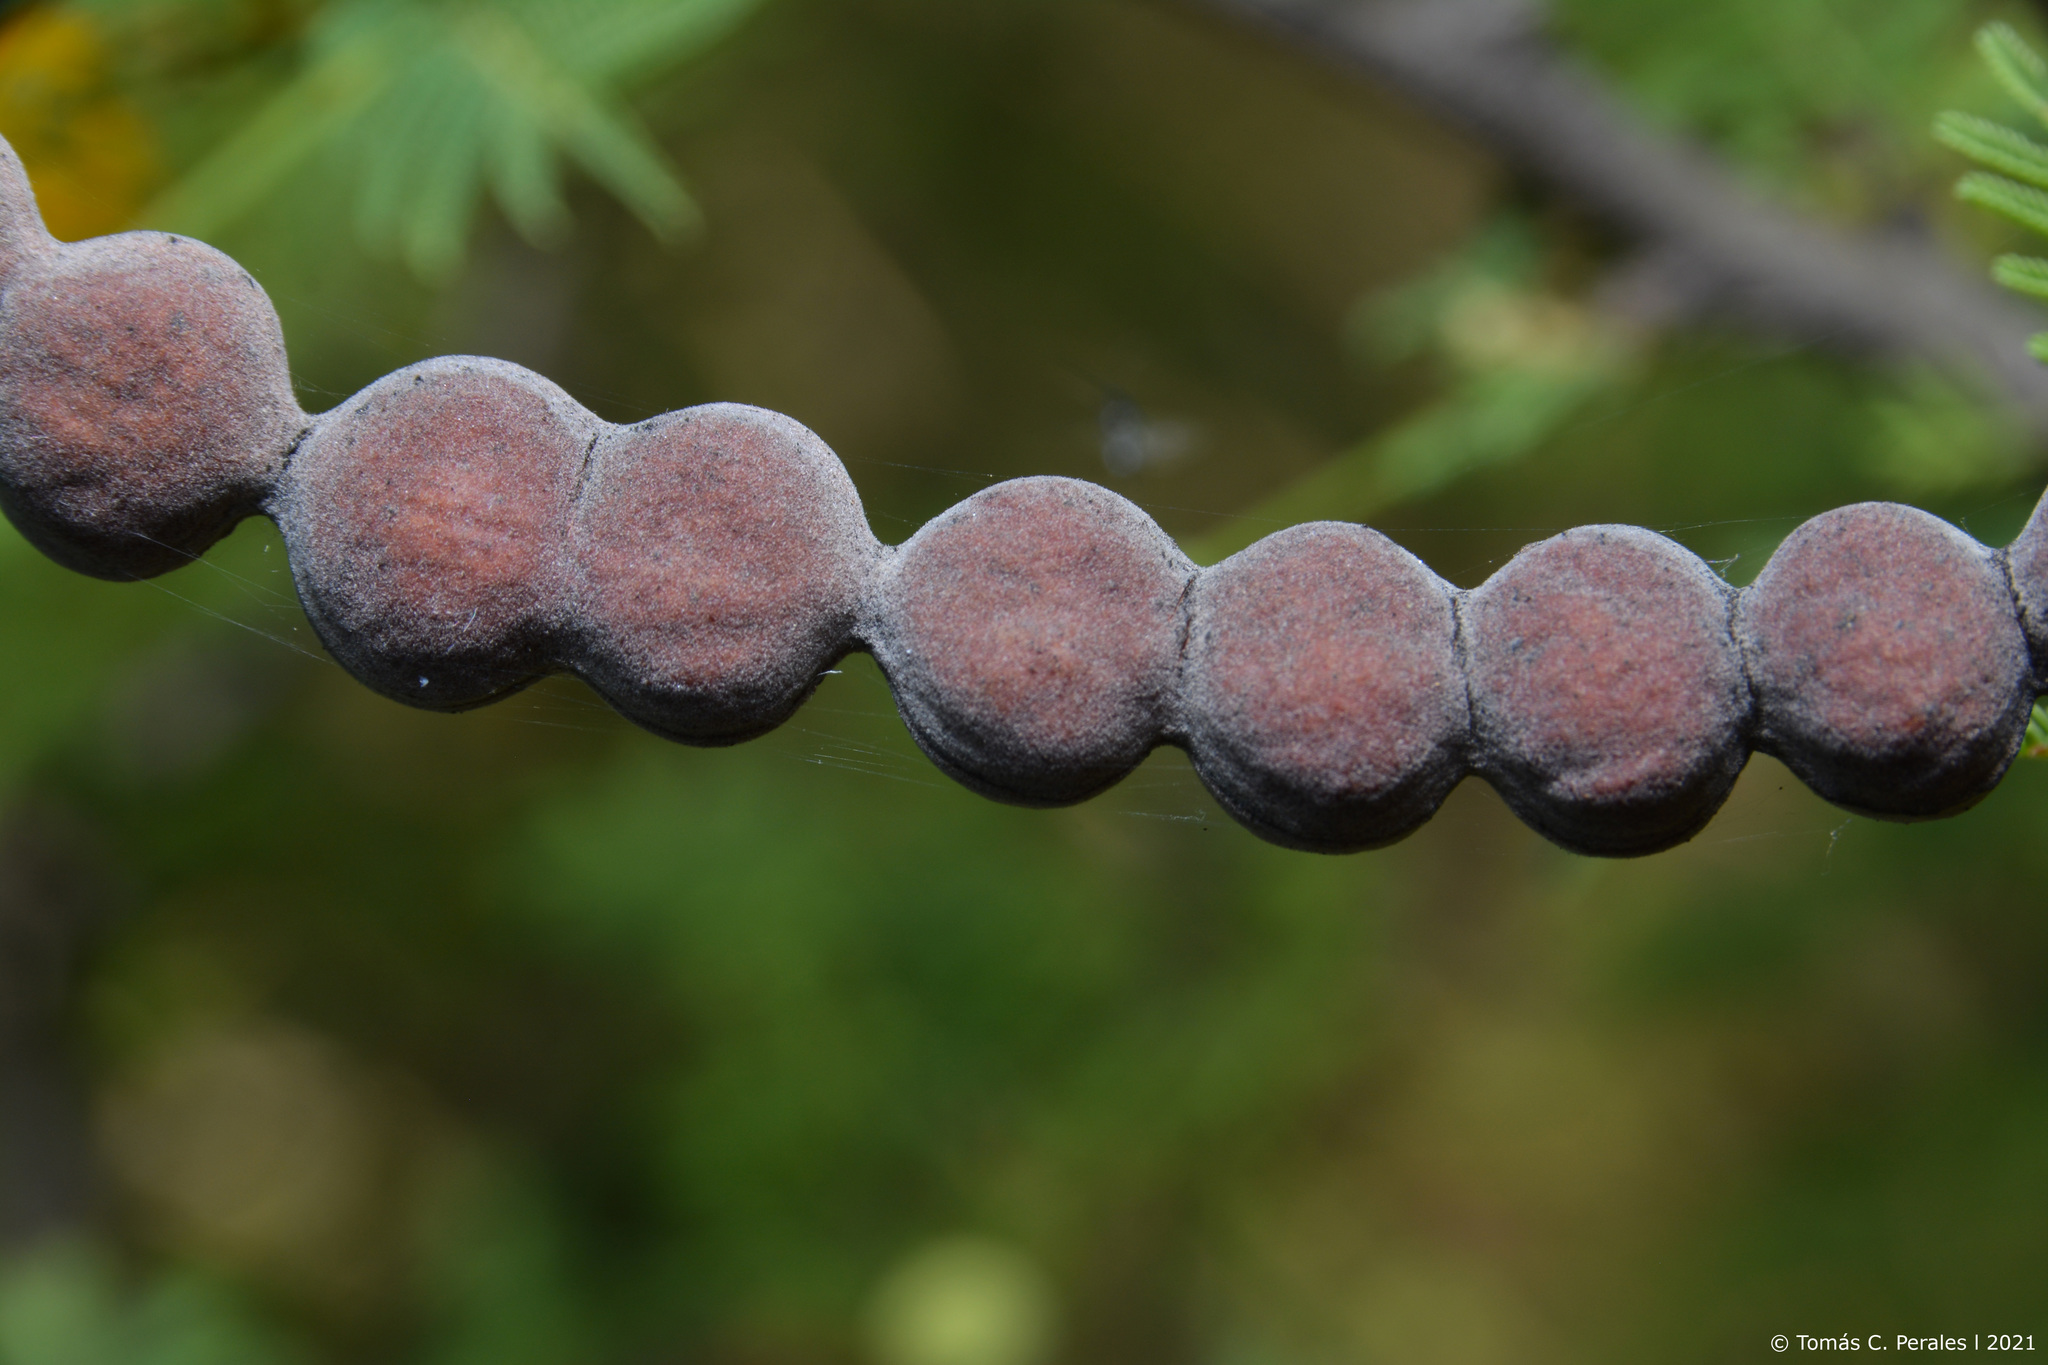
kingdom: Plantae
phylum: Tracheophyta
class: Magnoliopsida
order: Fabales
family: Fabaceae
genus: Vachellia
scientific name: Vachellia aroma
